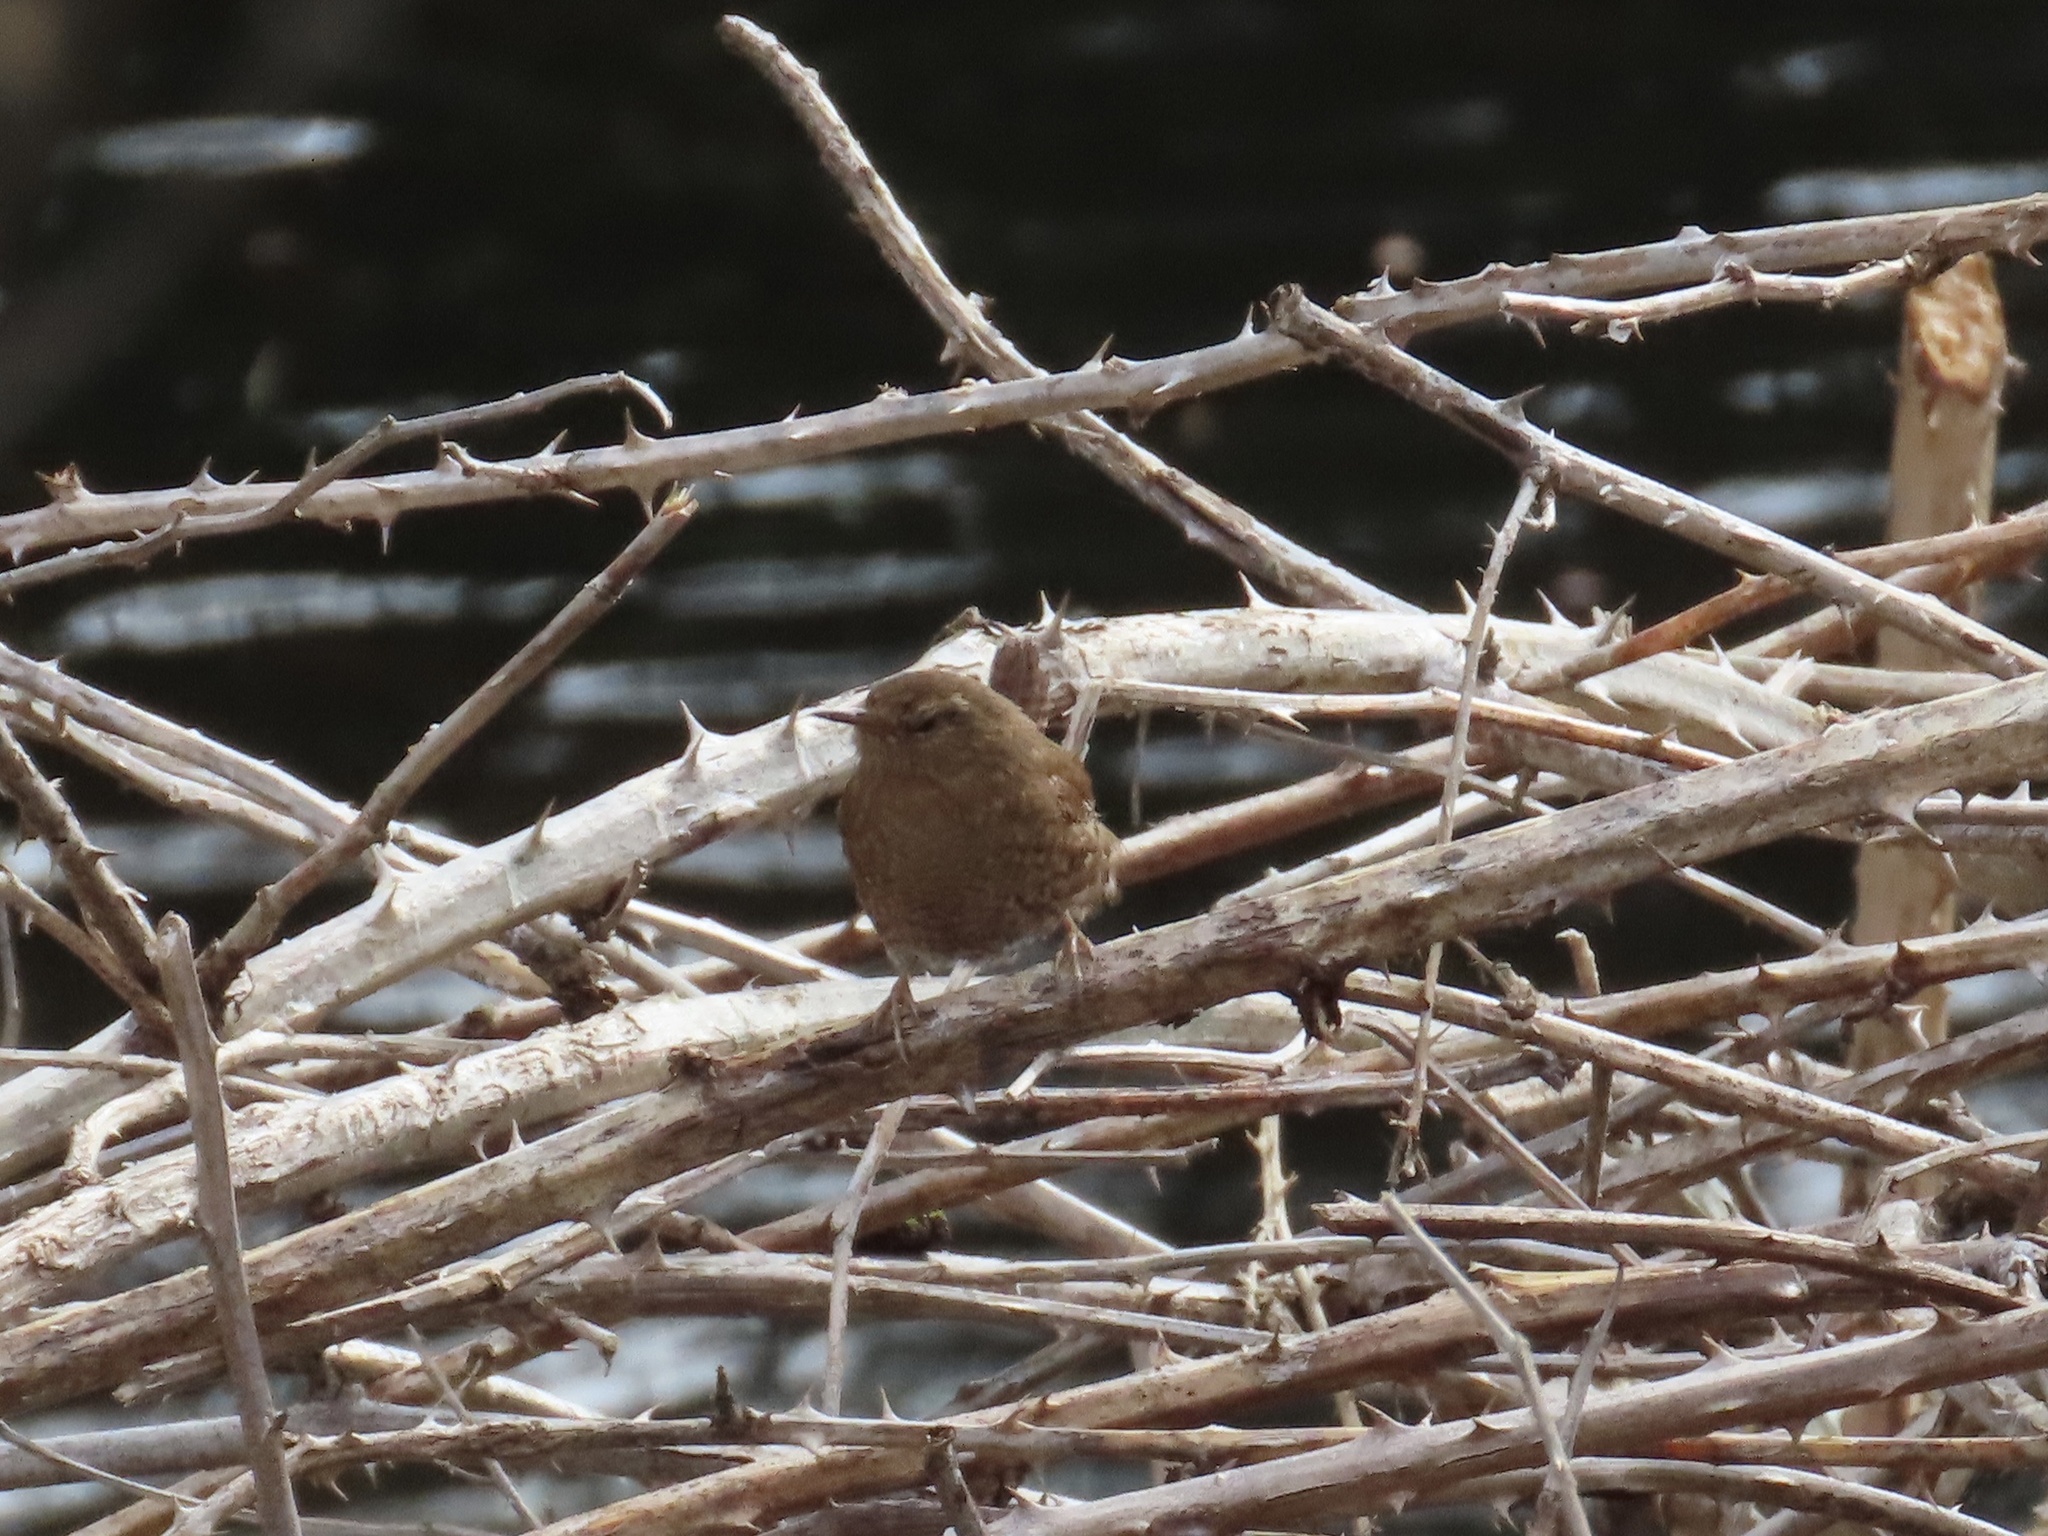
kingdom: Animalia
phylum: Chordata
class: Aves
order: Passeriformes
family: Troglodytidae
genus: Troglodytes
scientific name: Troglodytes pacificus
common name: Pacific wren
